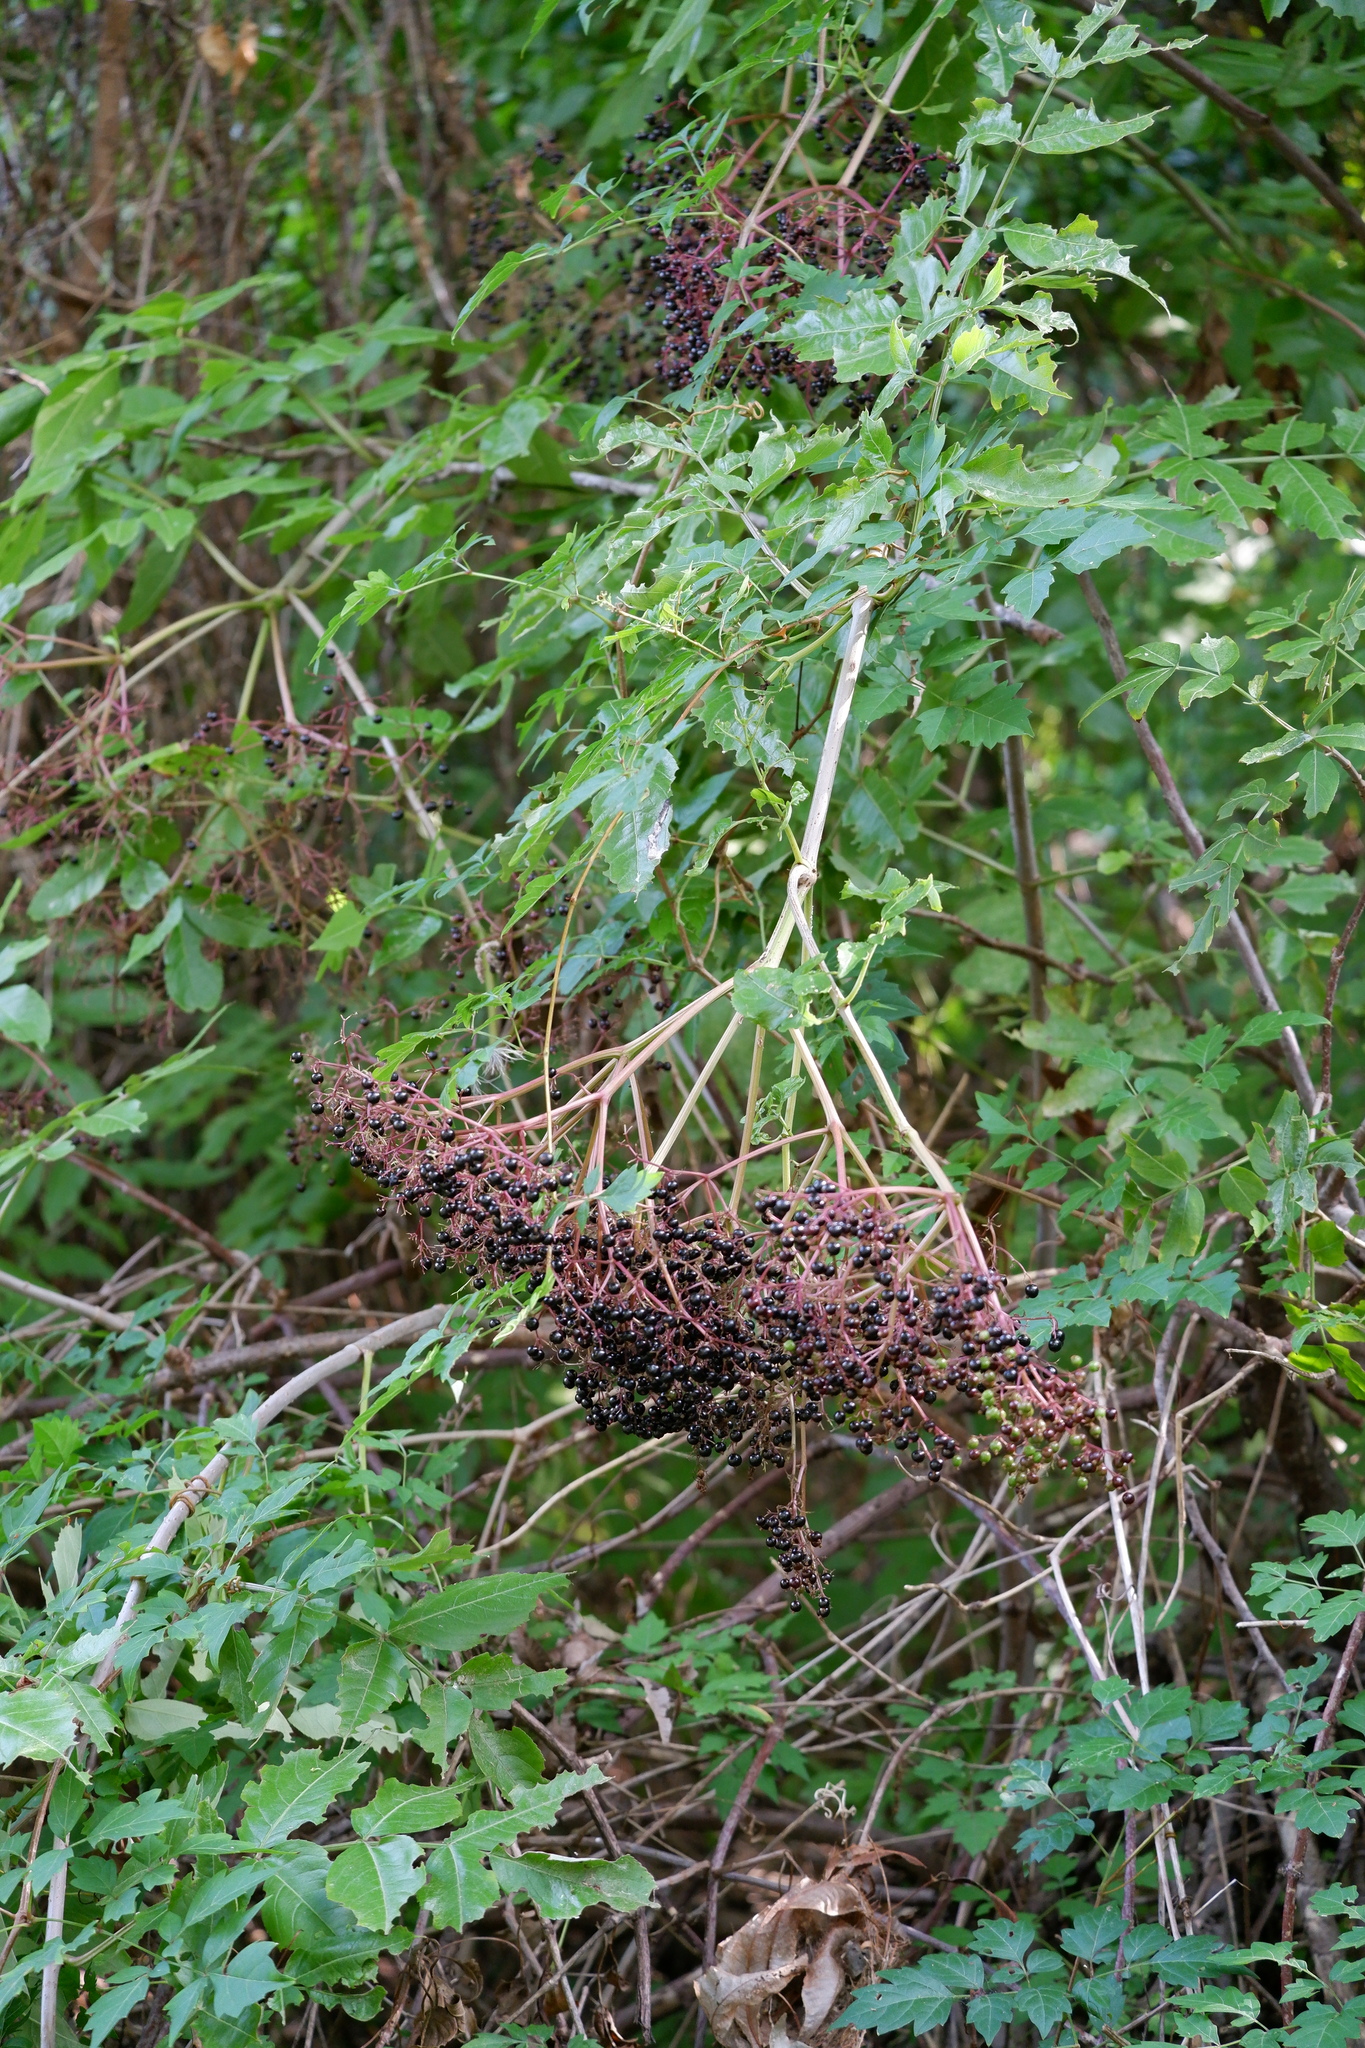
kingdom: Plantae
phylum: Tracheophyta
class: Magnoliopsida
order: Dipsacales
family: Viburnaceae
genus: Sambucus
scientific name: Sambucus canadensis
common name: American elder
